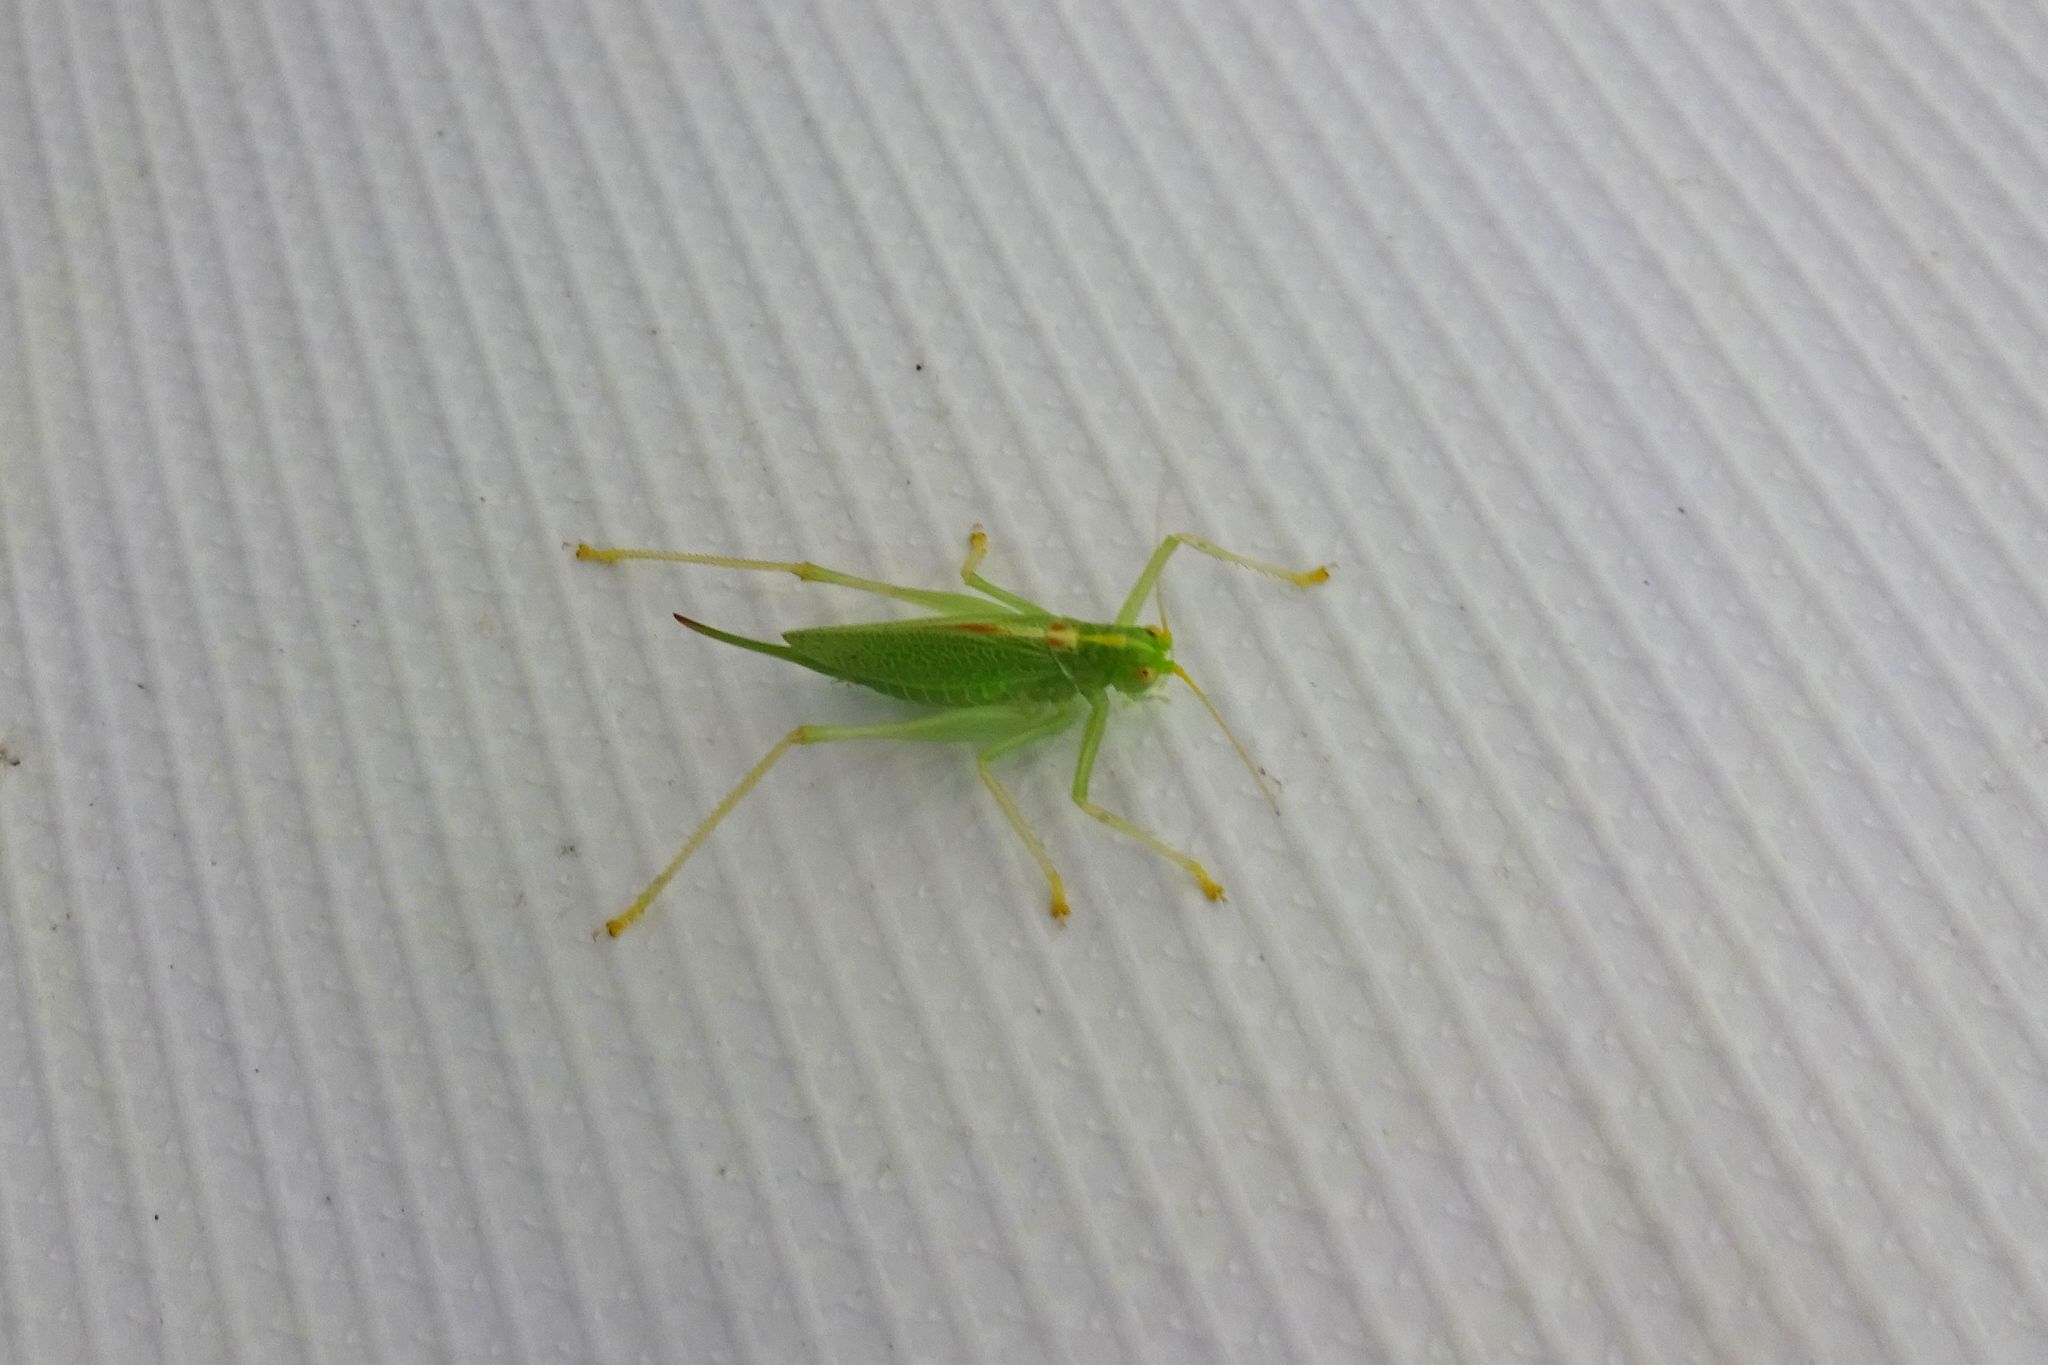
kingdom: Animalia
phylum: Arthropoda
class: Insecta
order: Orthoptera
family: Tettigoniidae
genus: Meconema
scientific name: Meconema thalassinum
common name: Oak bush-cricket
